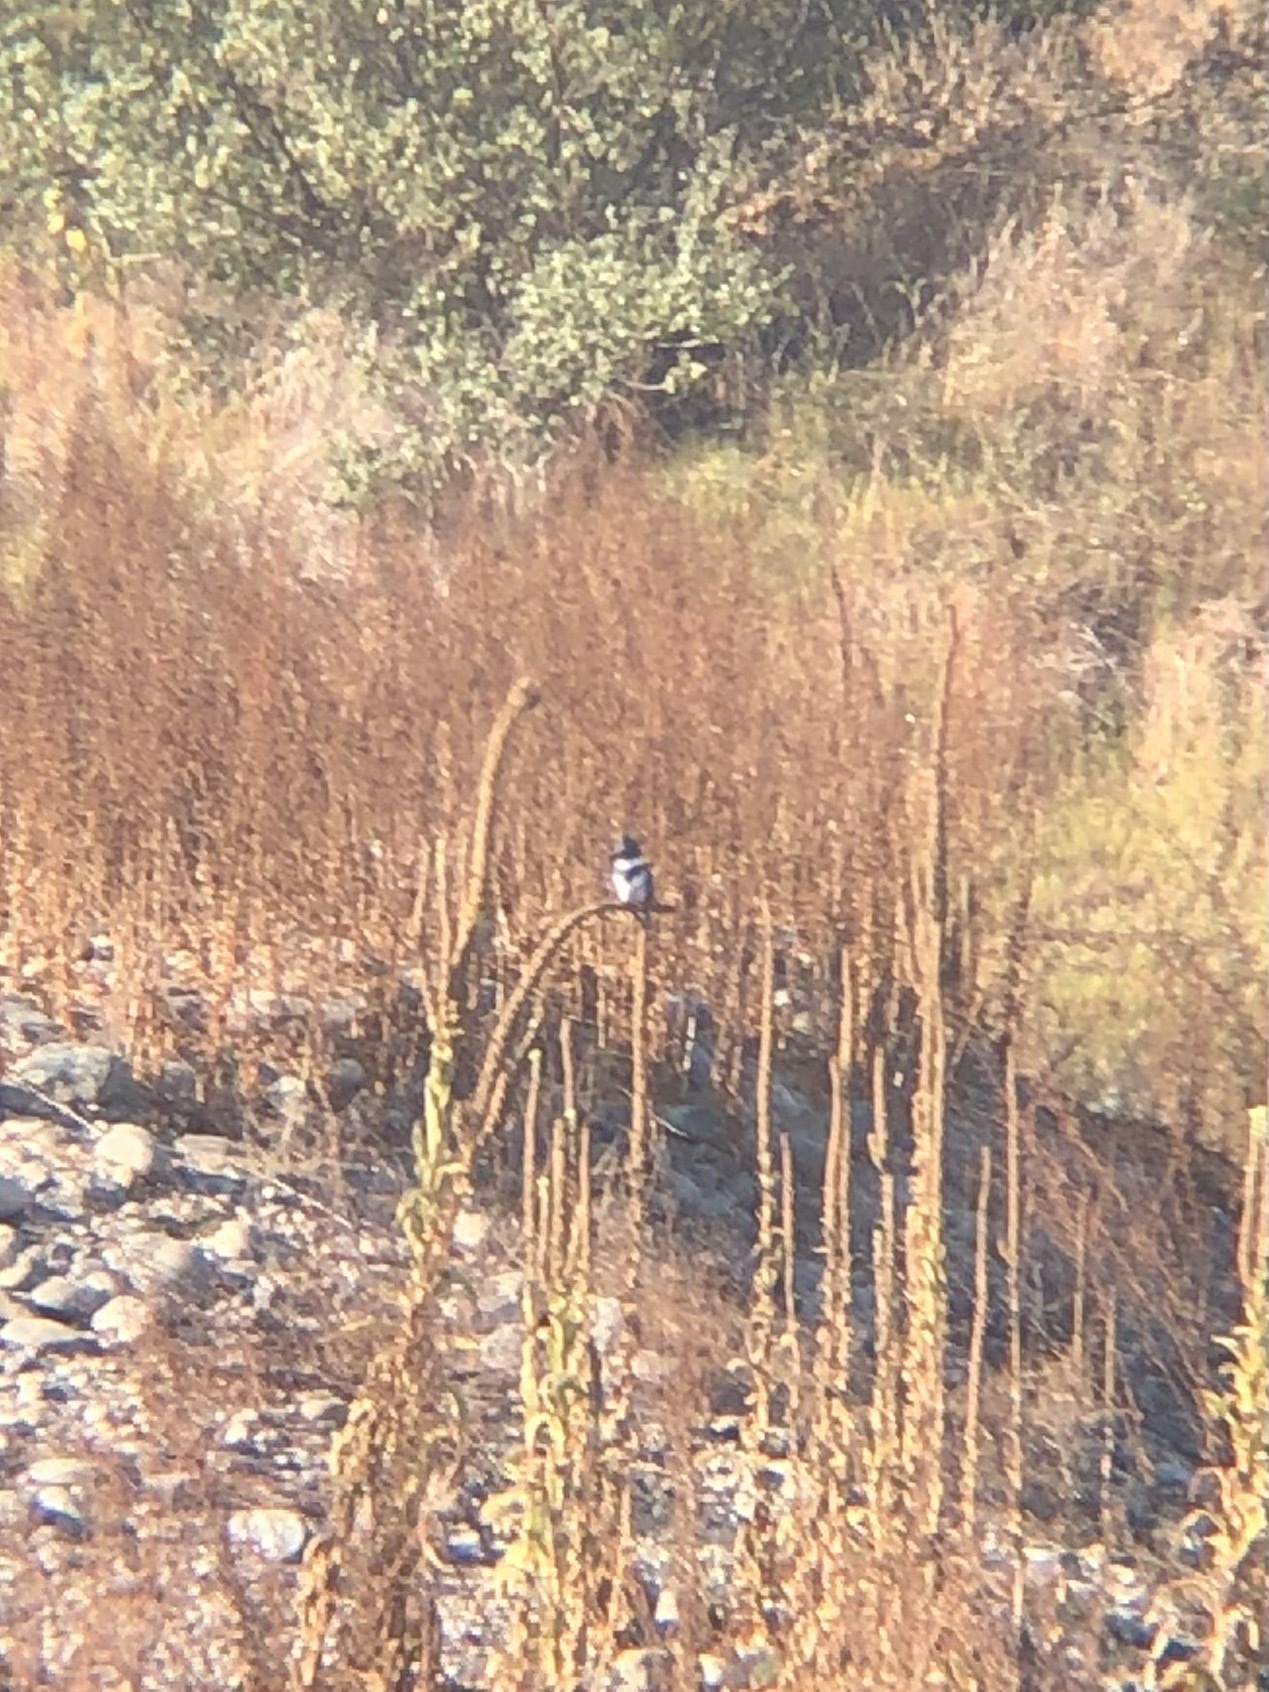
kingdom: Animalia
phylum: Chordata
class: Aves
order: Coraciiformes
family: Alcedinidae
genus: Megaceryle
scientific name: Megaceryle alcyon
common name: Belted kingfisher
